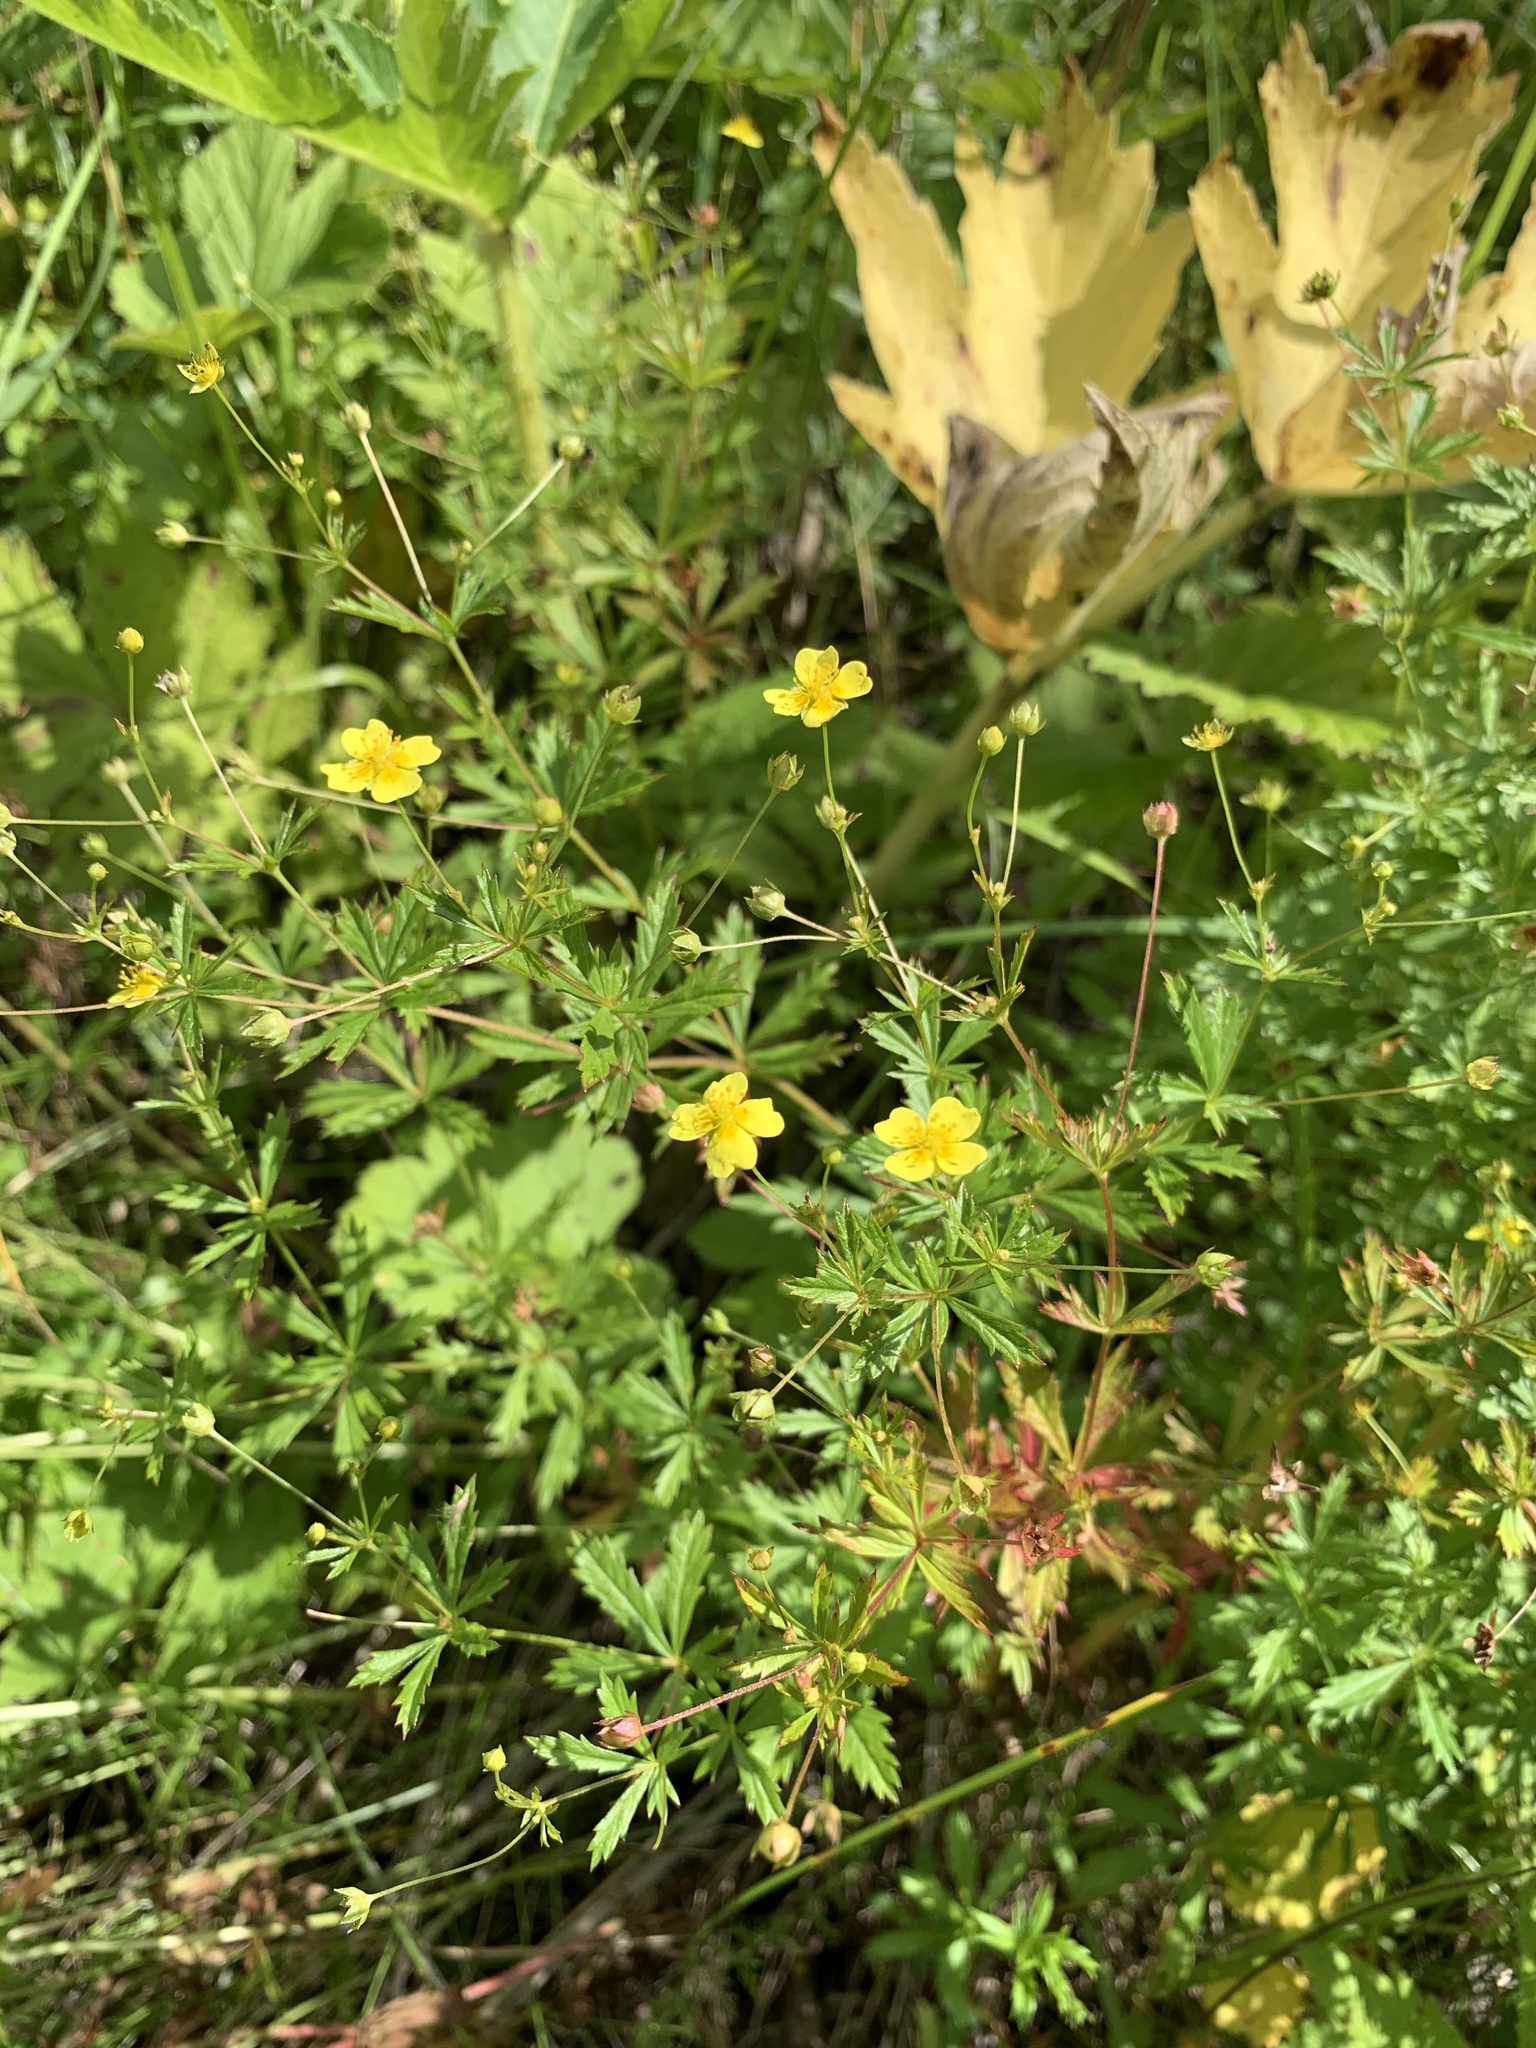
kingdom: Plantae
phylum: Tracheophyta
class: Magnoliopsida
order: Rosales
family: Rosaceae
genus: Potentilla
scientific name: Potentilla erecta
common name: Tormentil
